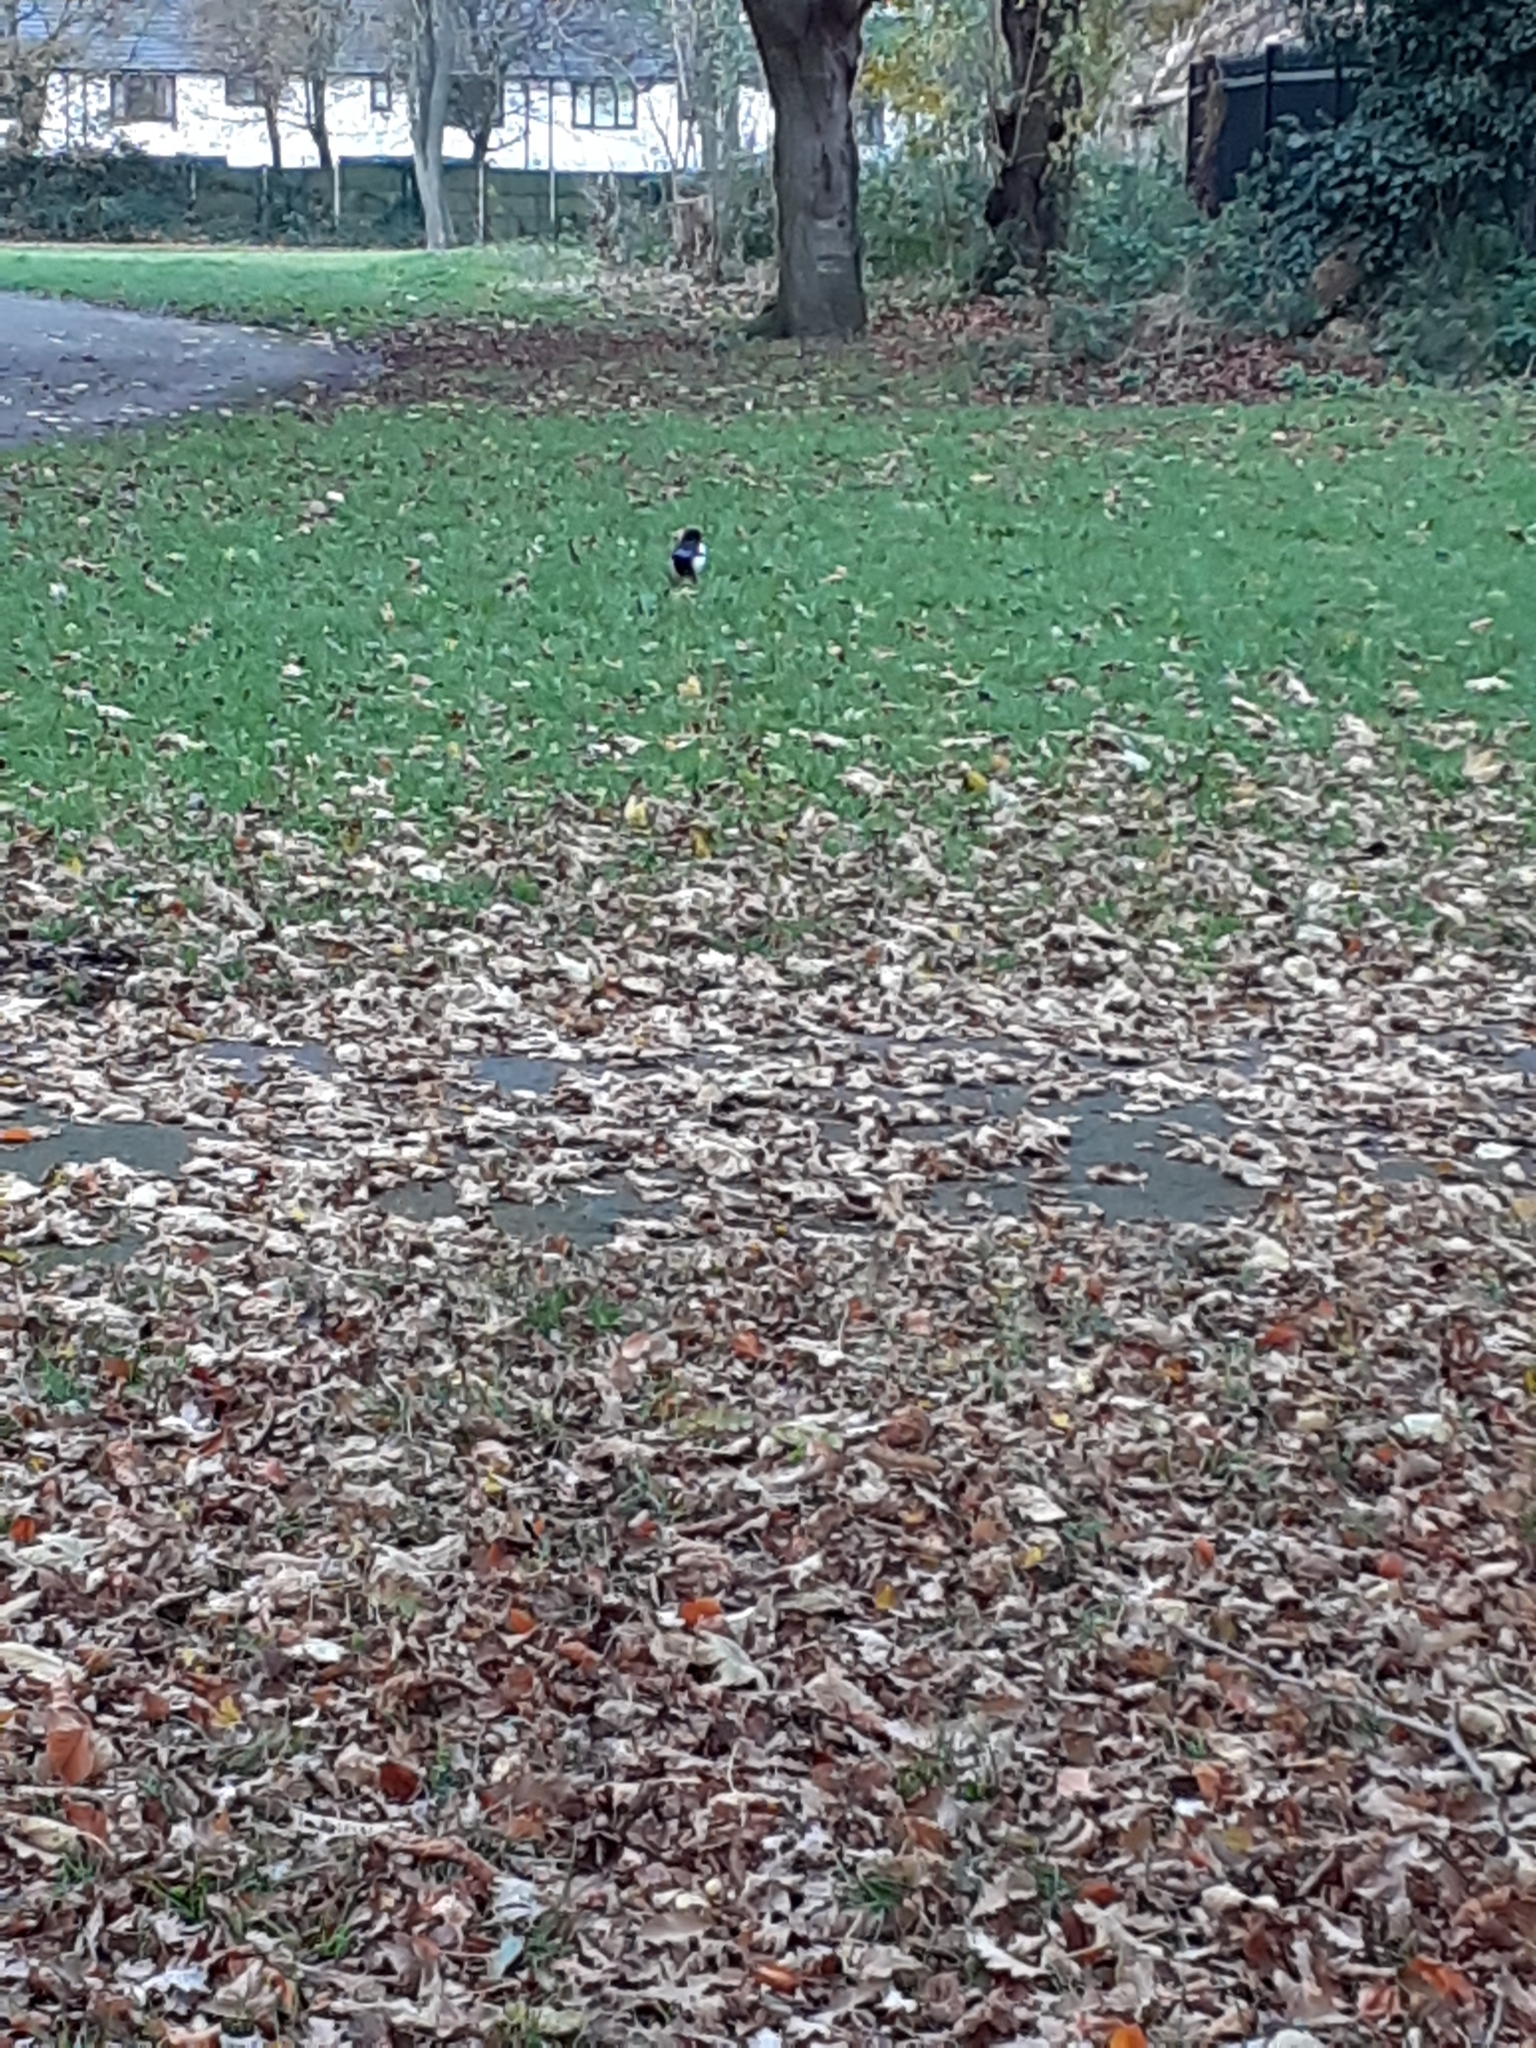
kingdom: Animalia
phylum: Chordata
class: Aves
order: Passeriformes
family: Corvidae
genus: Pica
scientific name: Pica pica
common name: Eurasian magpie
